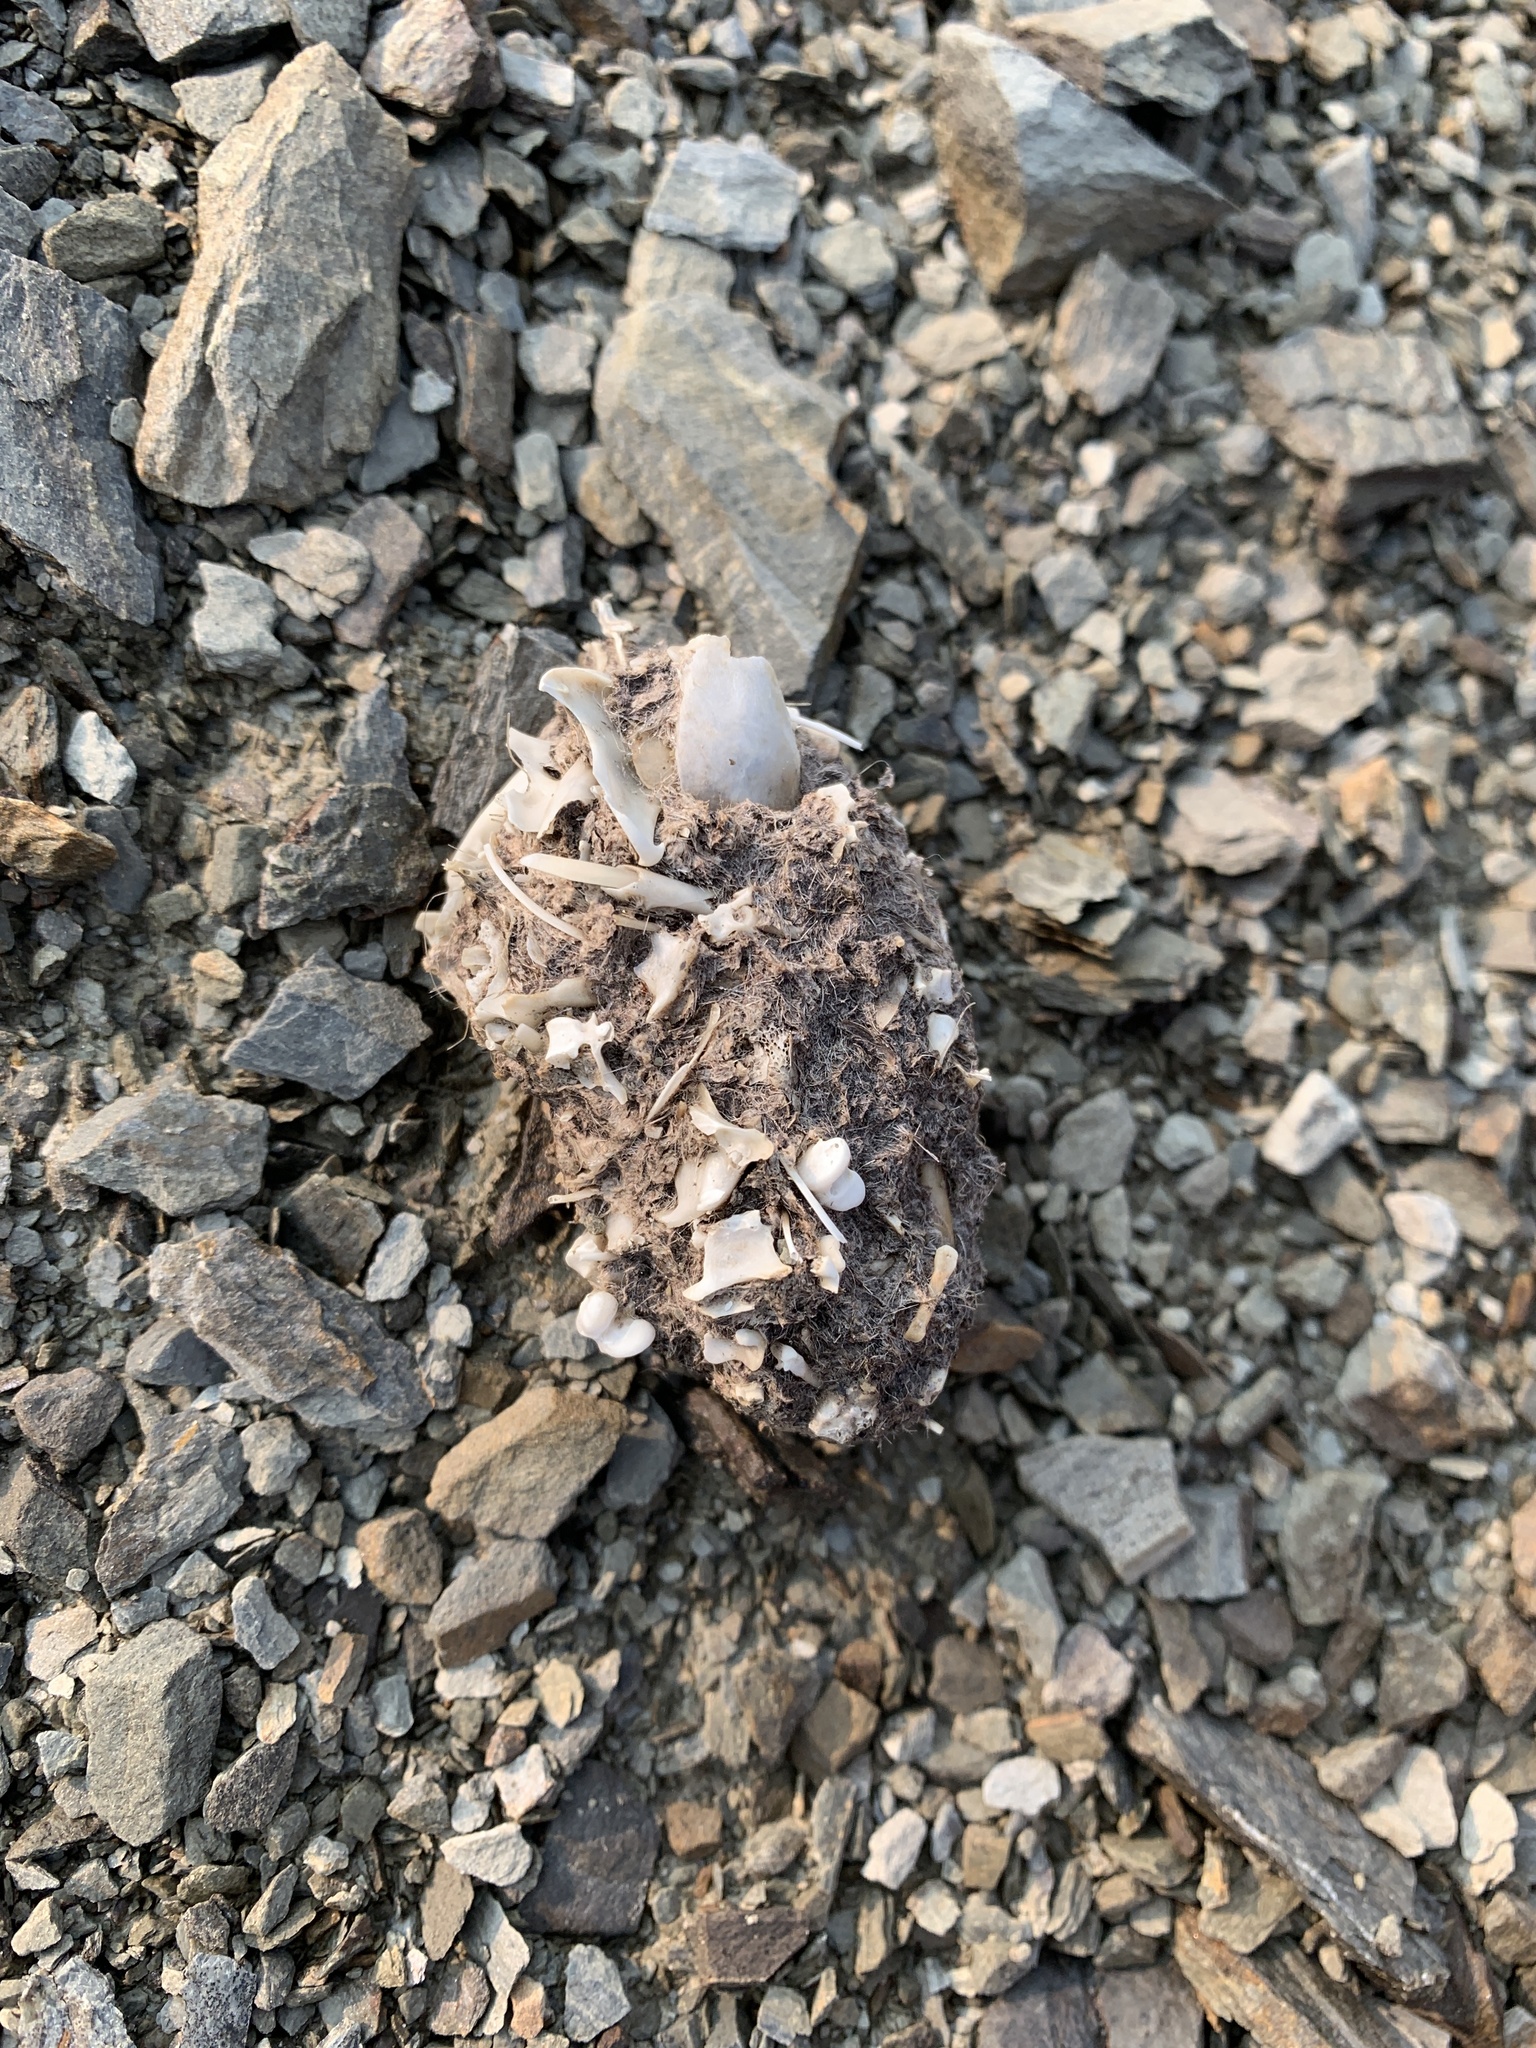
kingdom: Animalia
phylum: Chordata
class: Mammalia
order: Lagomorpha
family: Ochotonidae
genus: Ochotona
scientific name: Ochotona princeps
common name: American pika
